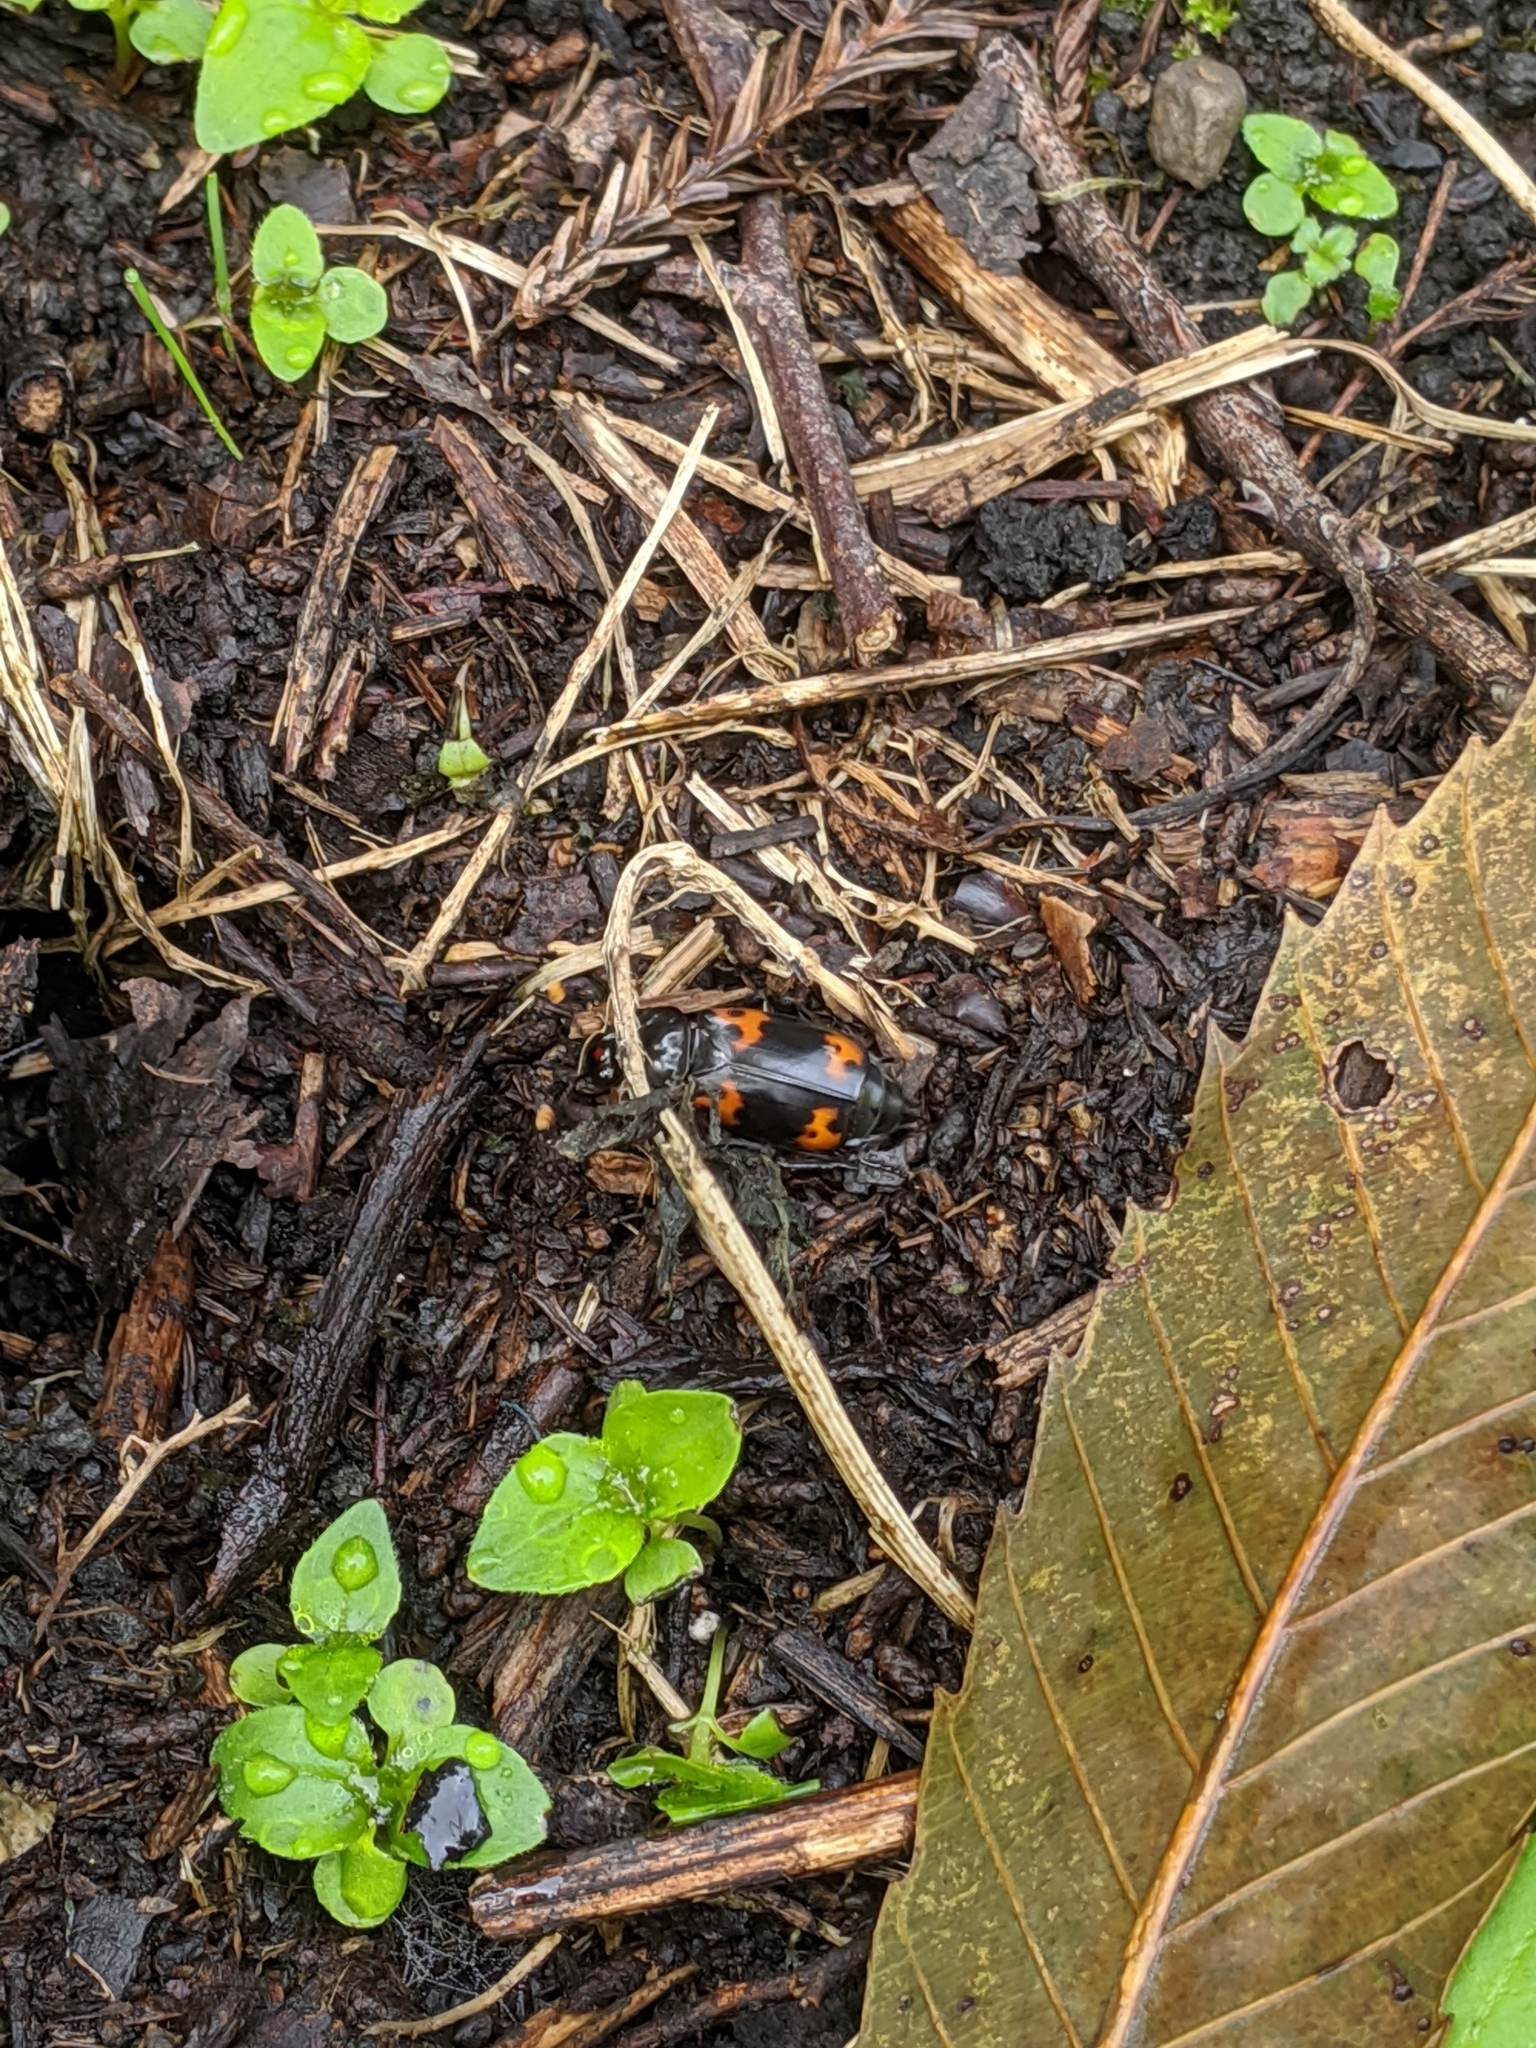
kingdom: Animalia
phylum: Arthropoda
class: Insecta
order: Coleoptera
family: Staphylinidae
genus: Nicrophorus
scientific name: Nicrophorus nepalensis
